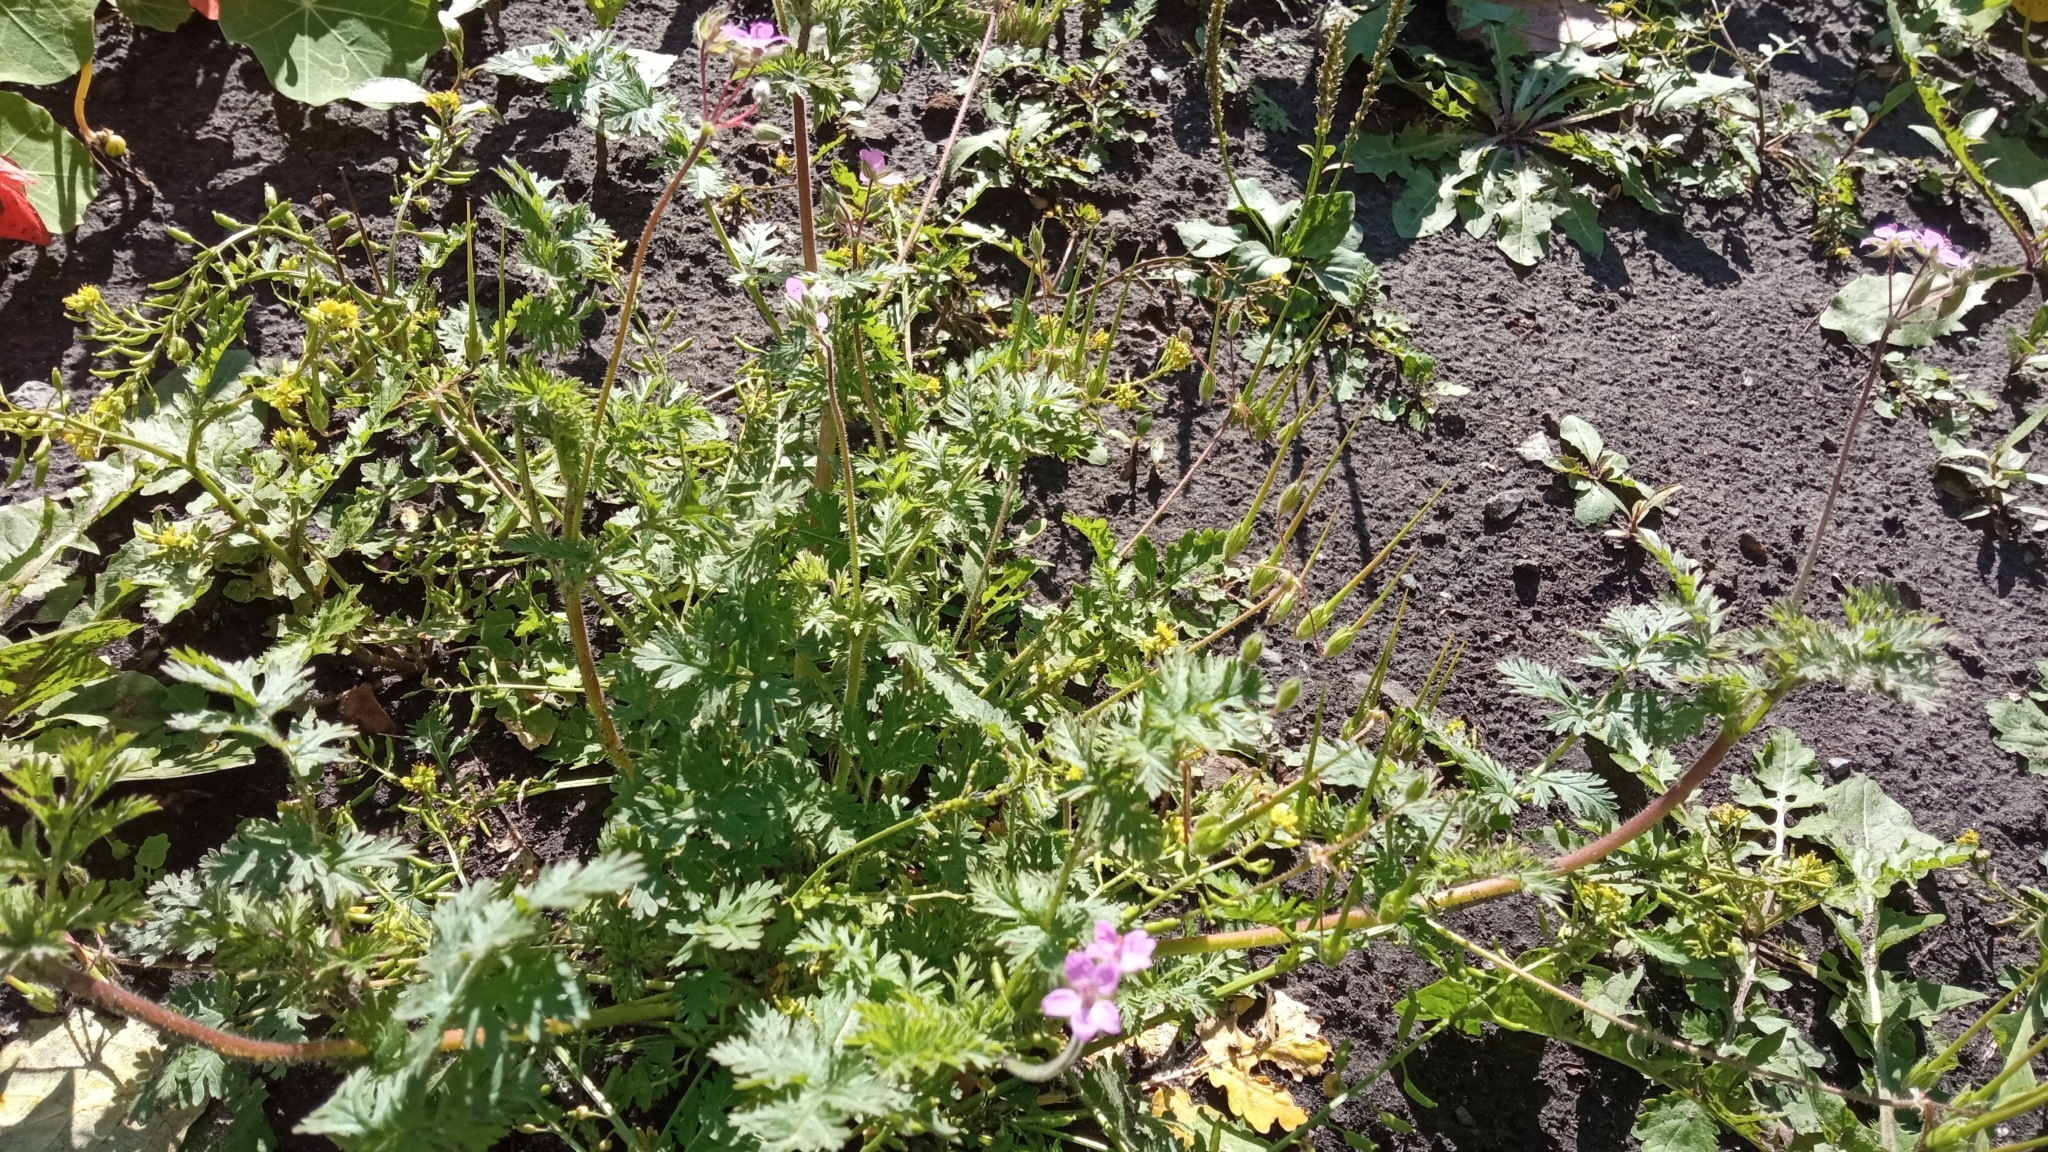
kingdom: Plantae
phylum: Tracheophyta
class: Magnoliopsida
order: Geraniales
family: Geraniaceae
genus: Erodium
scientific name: Erodium cicutarium
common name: Common stork's-bill
